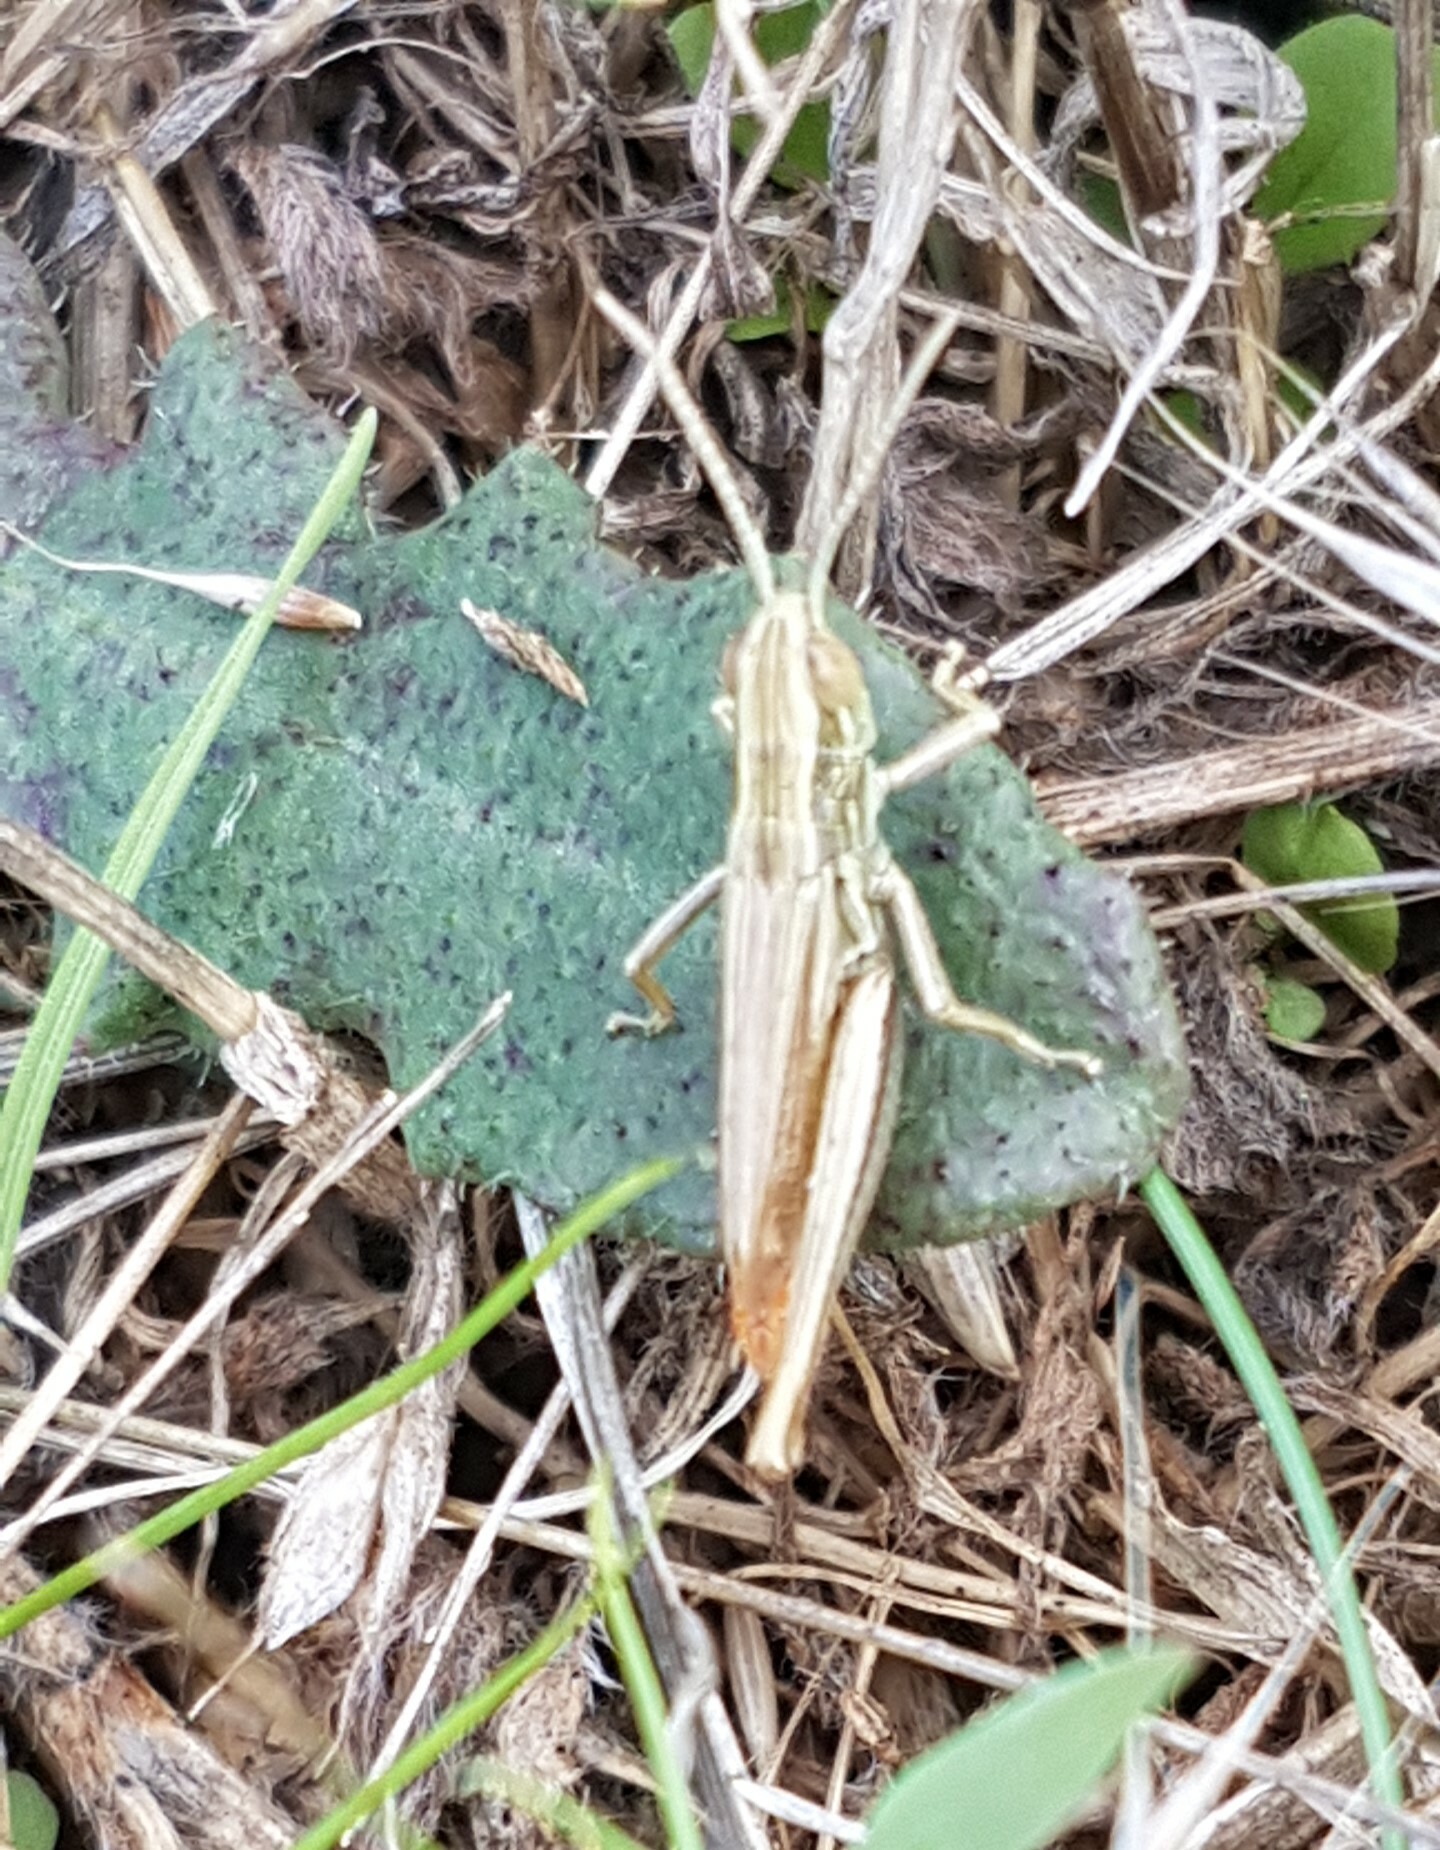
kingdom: Animalia
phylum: Arthropoda
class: Insecta
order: Orthoptera
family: Acrididae
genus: Euchorthippus
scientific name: Euchorthippus declivus
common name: Common straw grasshopper
